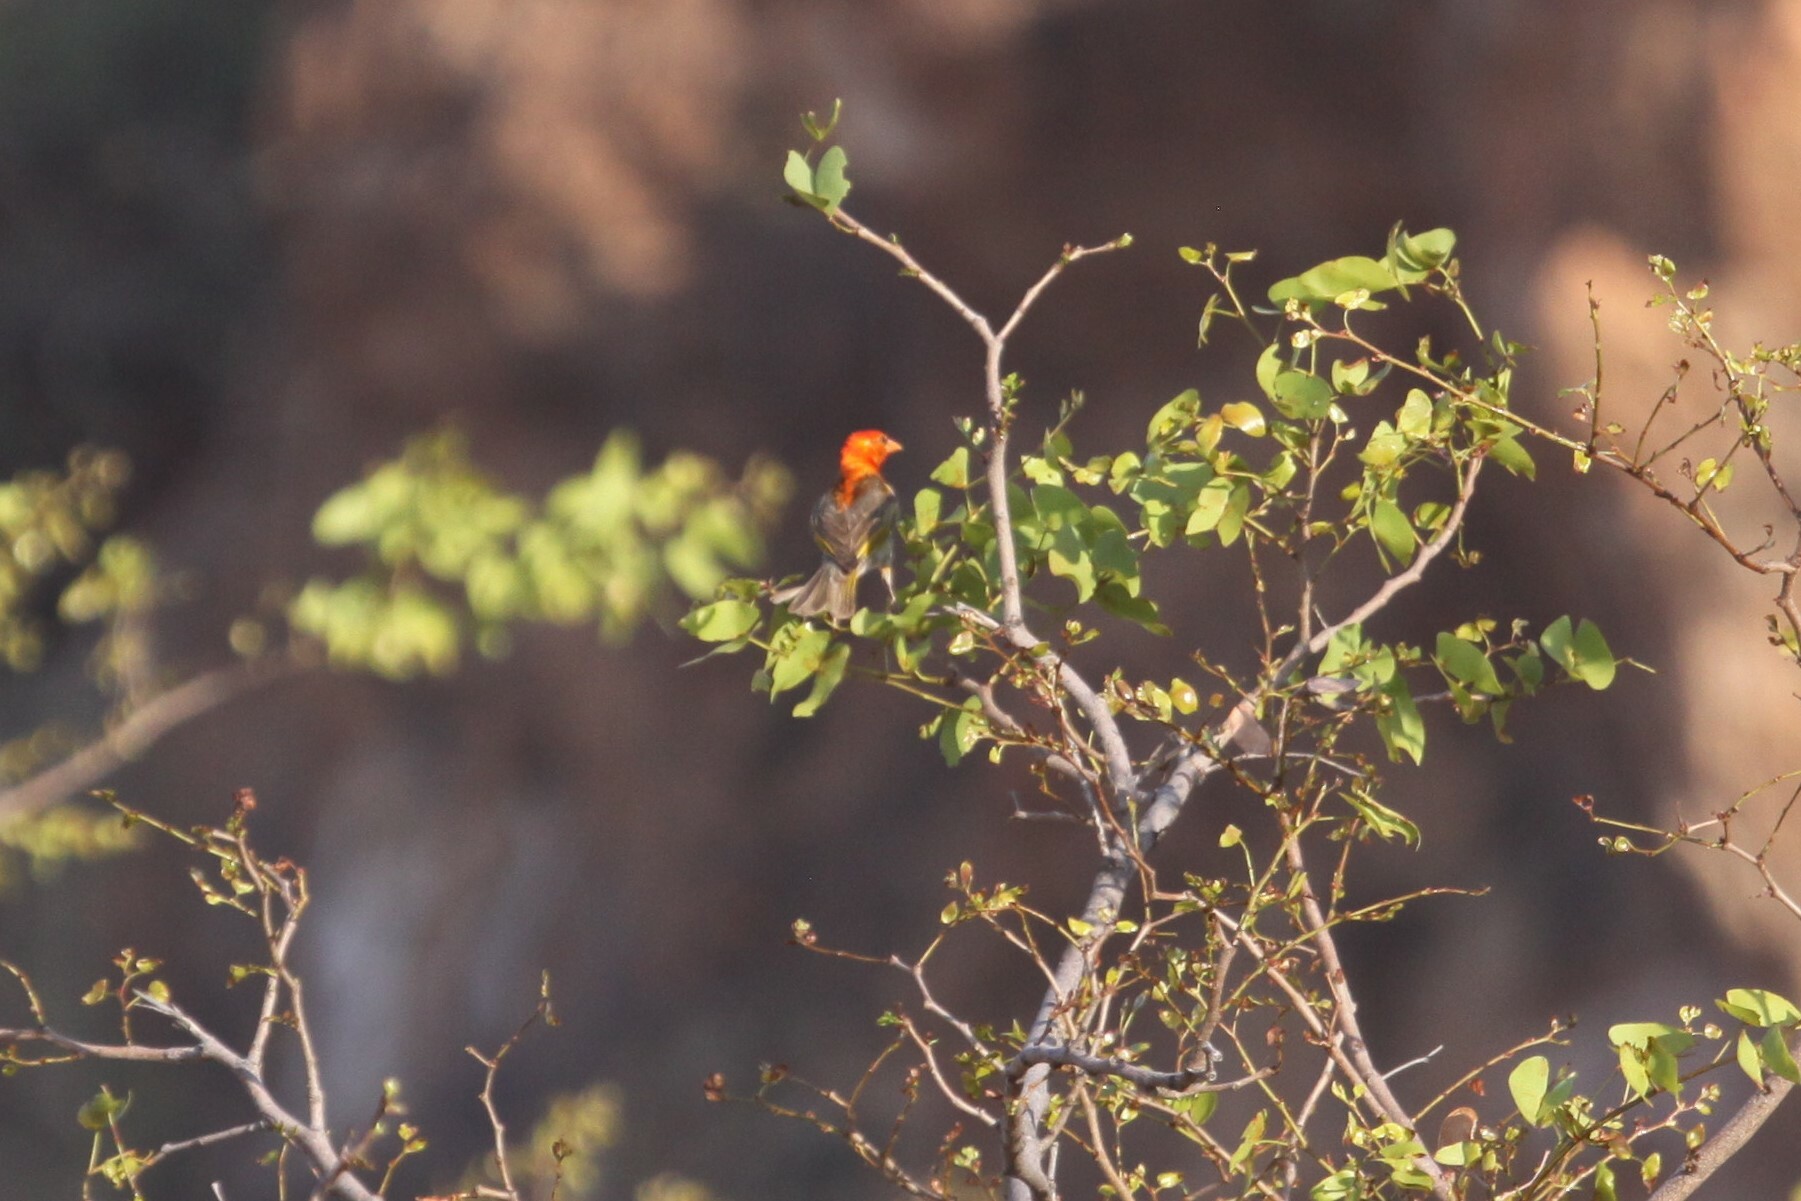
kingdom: Animalia
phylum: Chordata
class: Aves
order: Passeriformes
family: Ploceidae
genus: Anaplectes
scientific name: Anaplectes rubriceps
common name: Red-headed weaver
